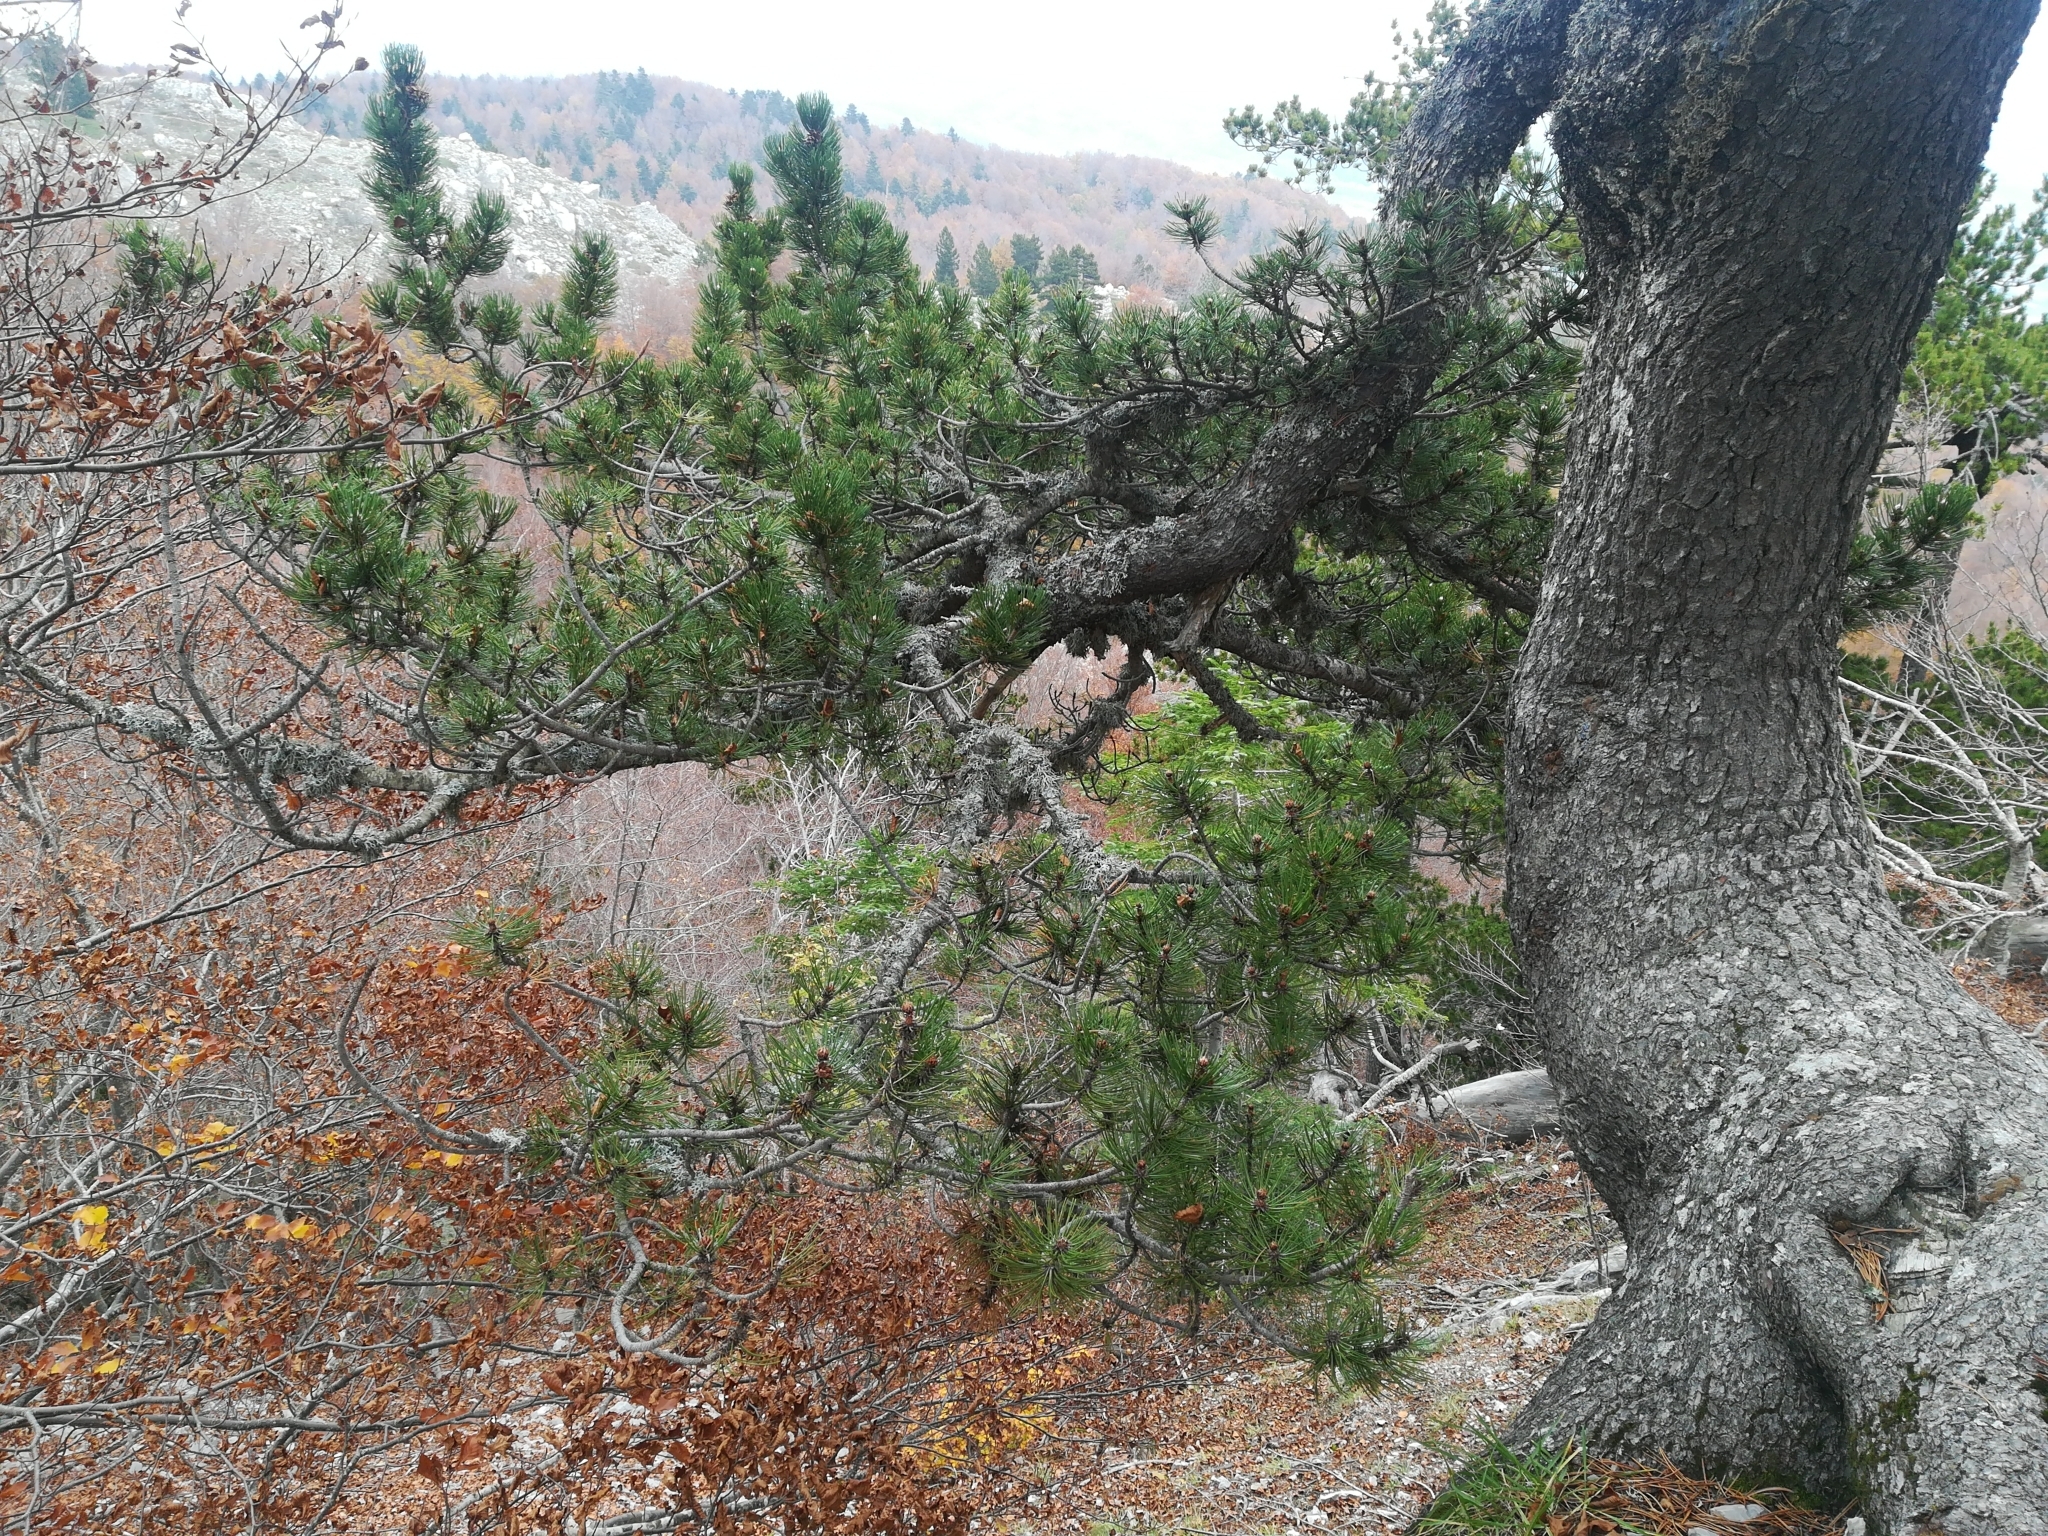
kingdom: Plantae
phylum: Tracheophyta
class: Pinopsida
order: Pinales
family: Pinaceae
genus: Pinus
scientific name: Pinus heldreichii
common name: Bosnian pine
